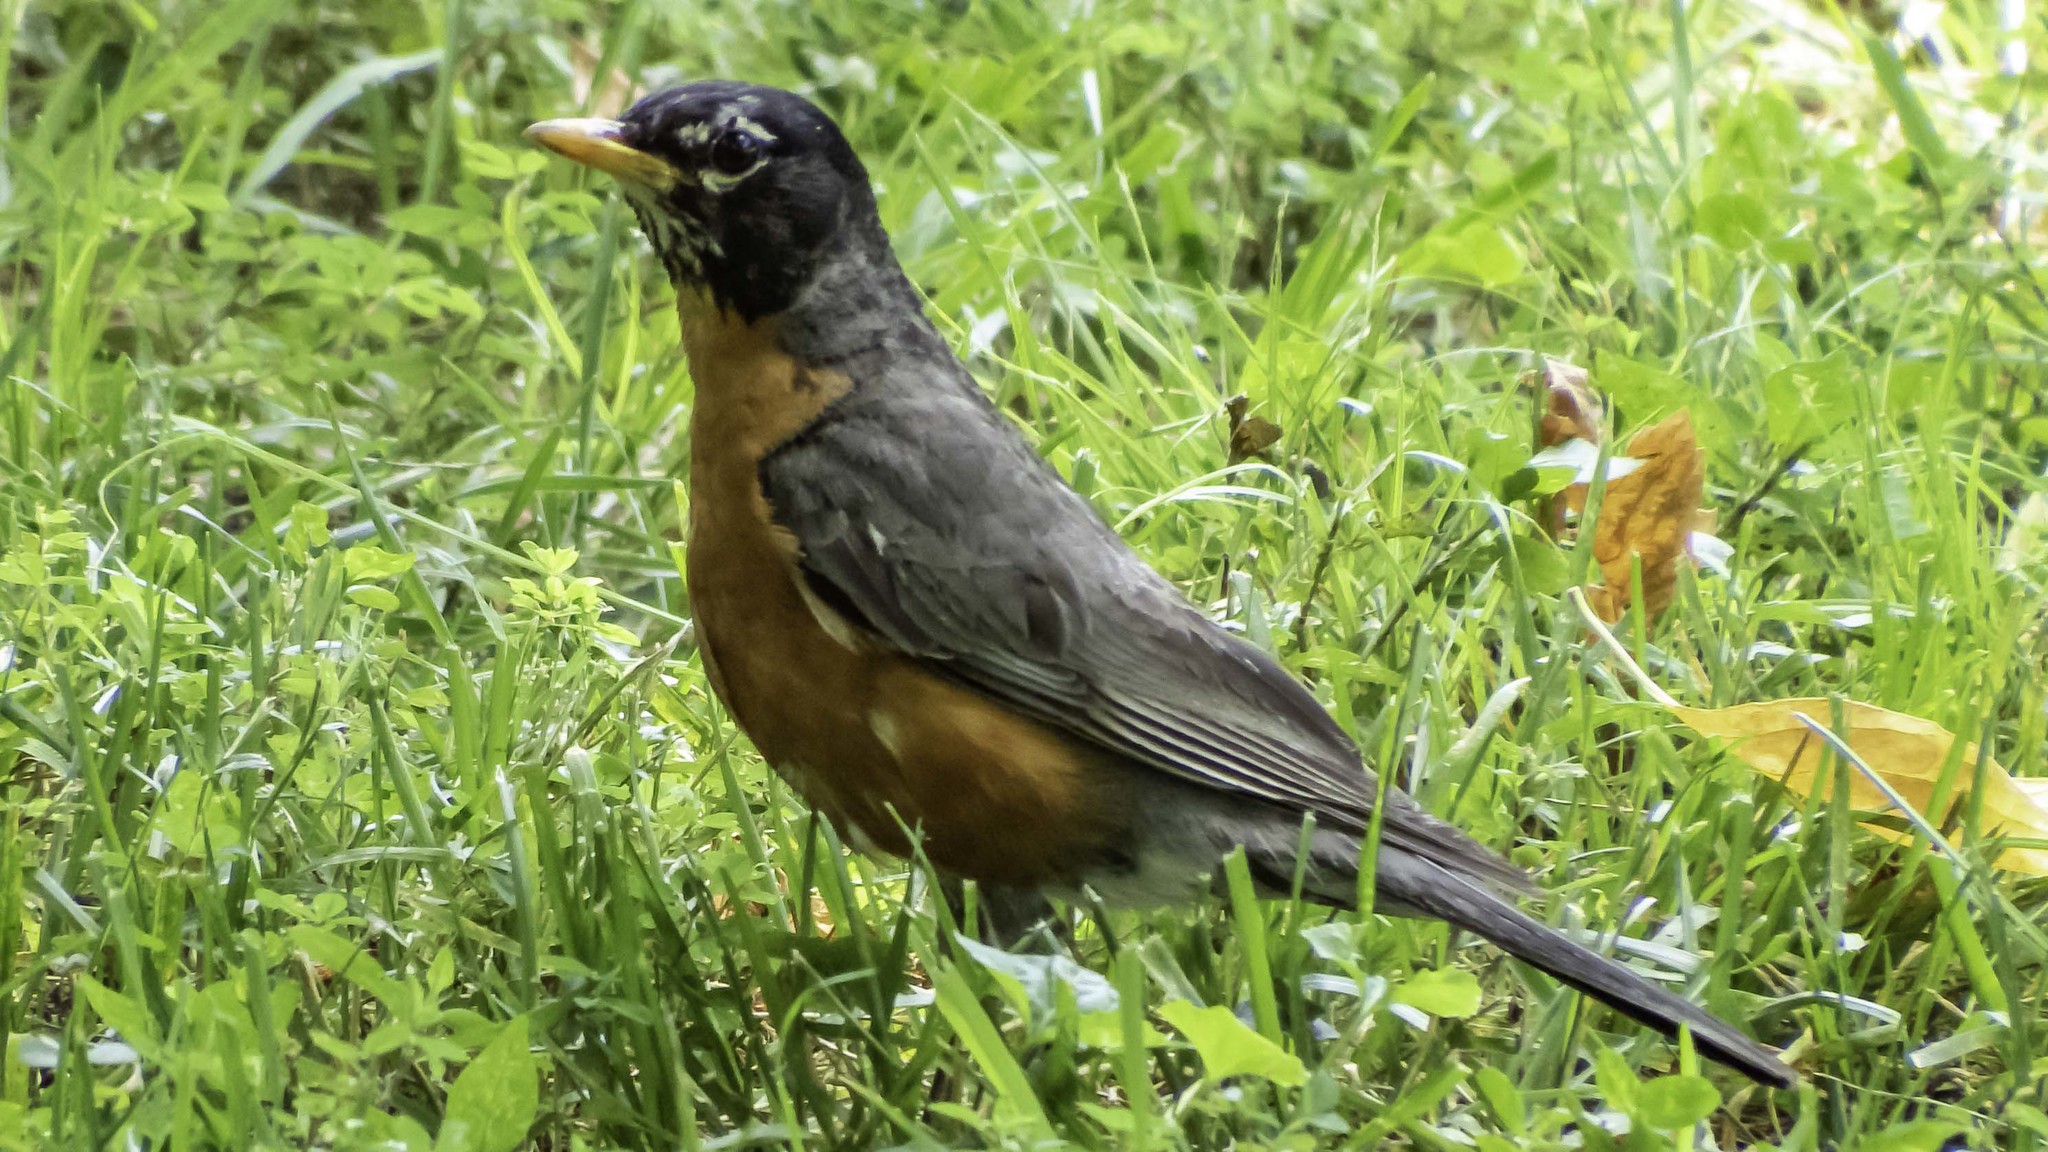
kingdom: Animalia
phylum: Chordata
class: Aves
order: Passeriformes
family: Turdidae
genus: Turdus
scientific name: Turdus migratorius
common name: American robin
